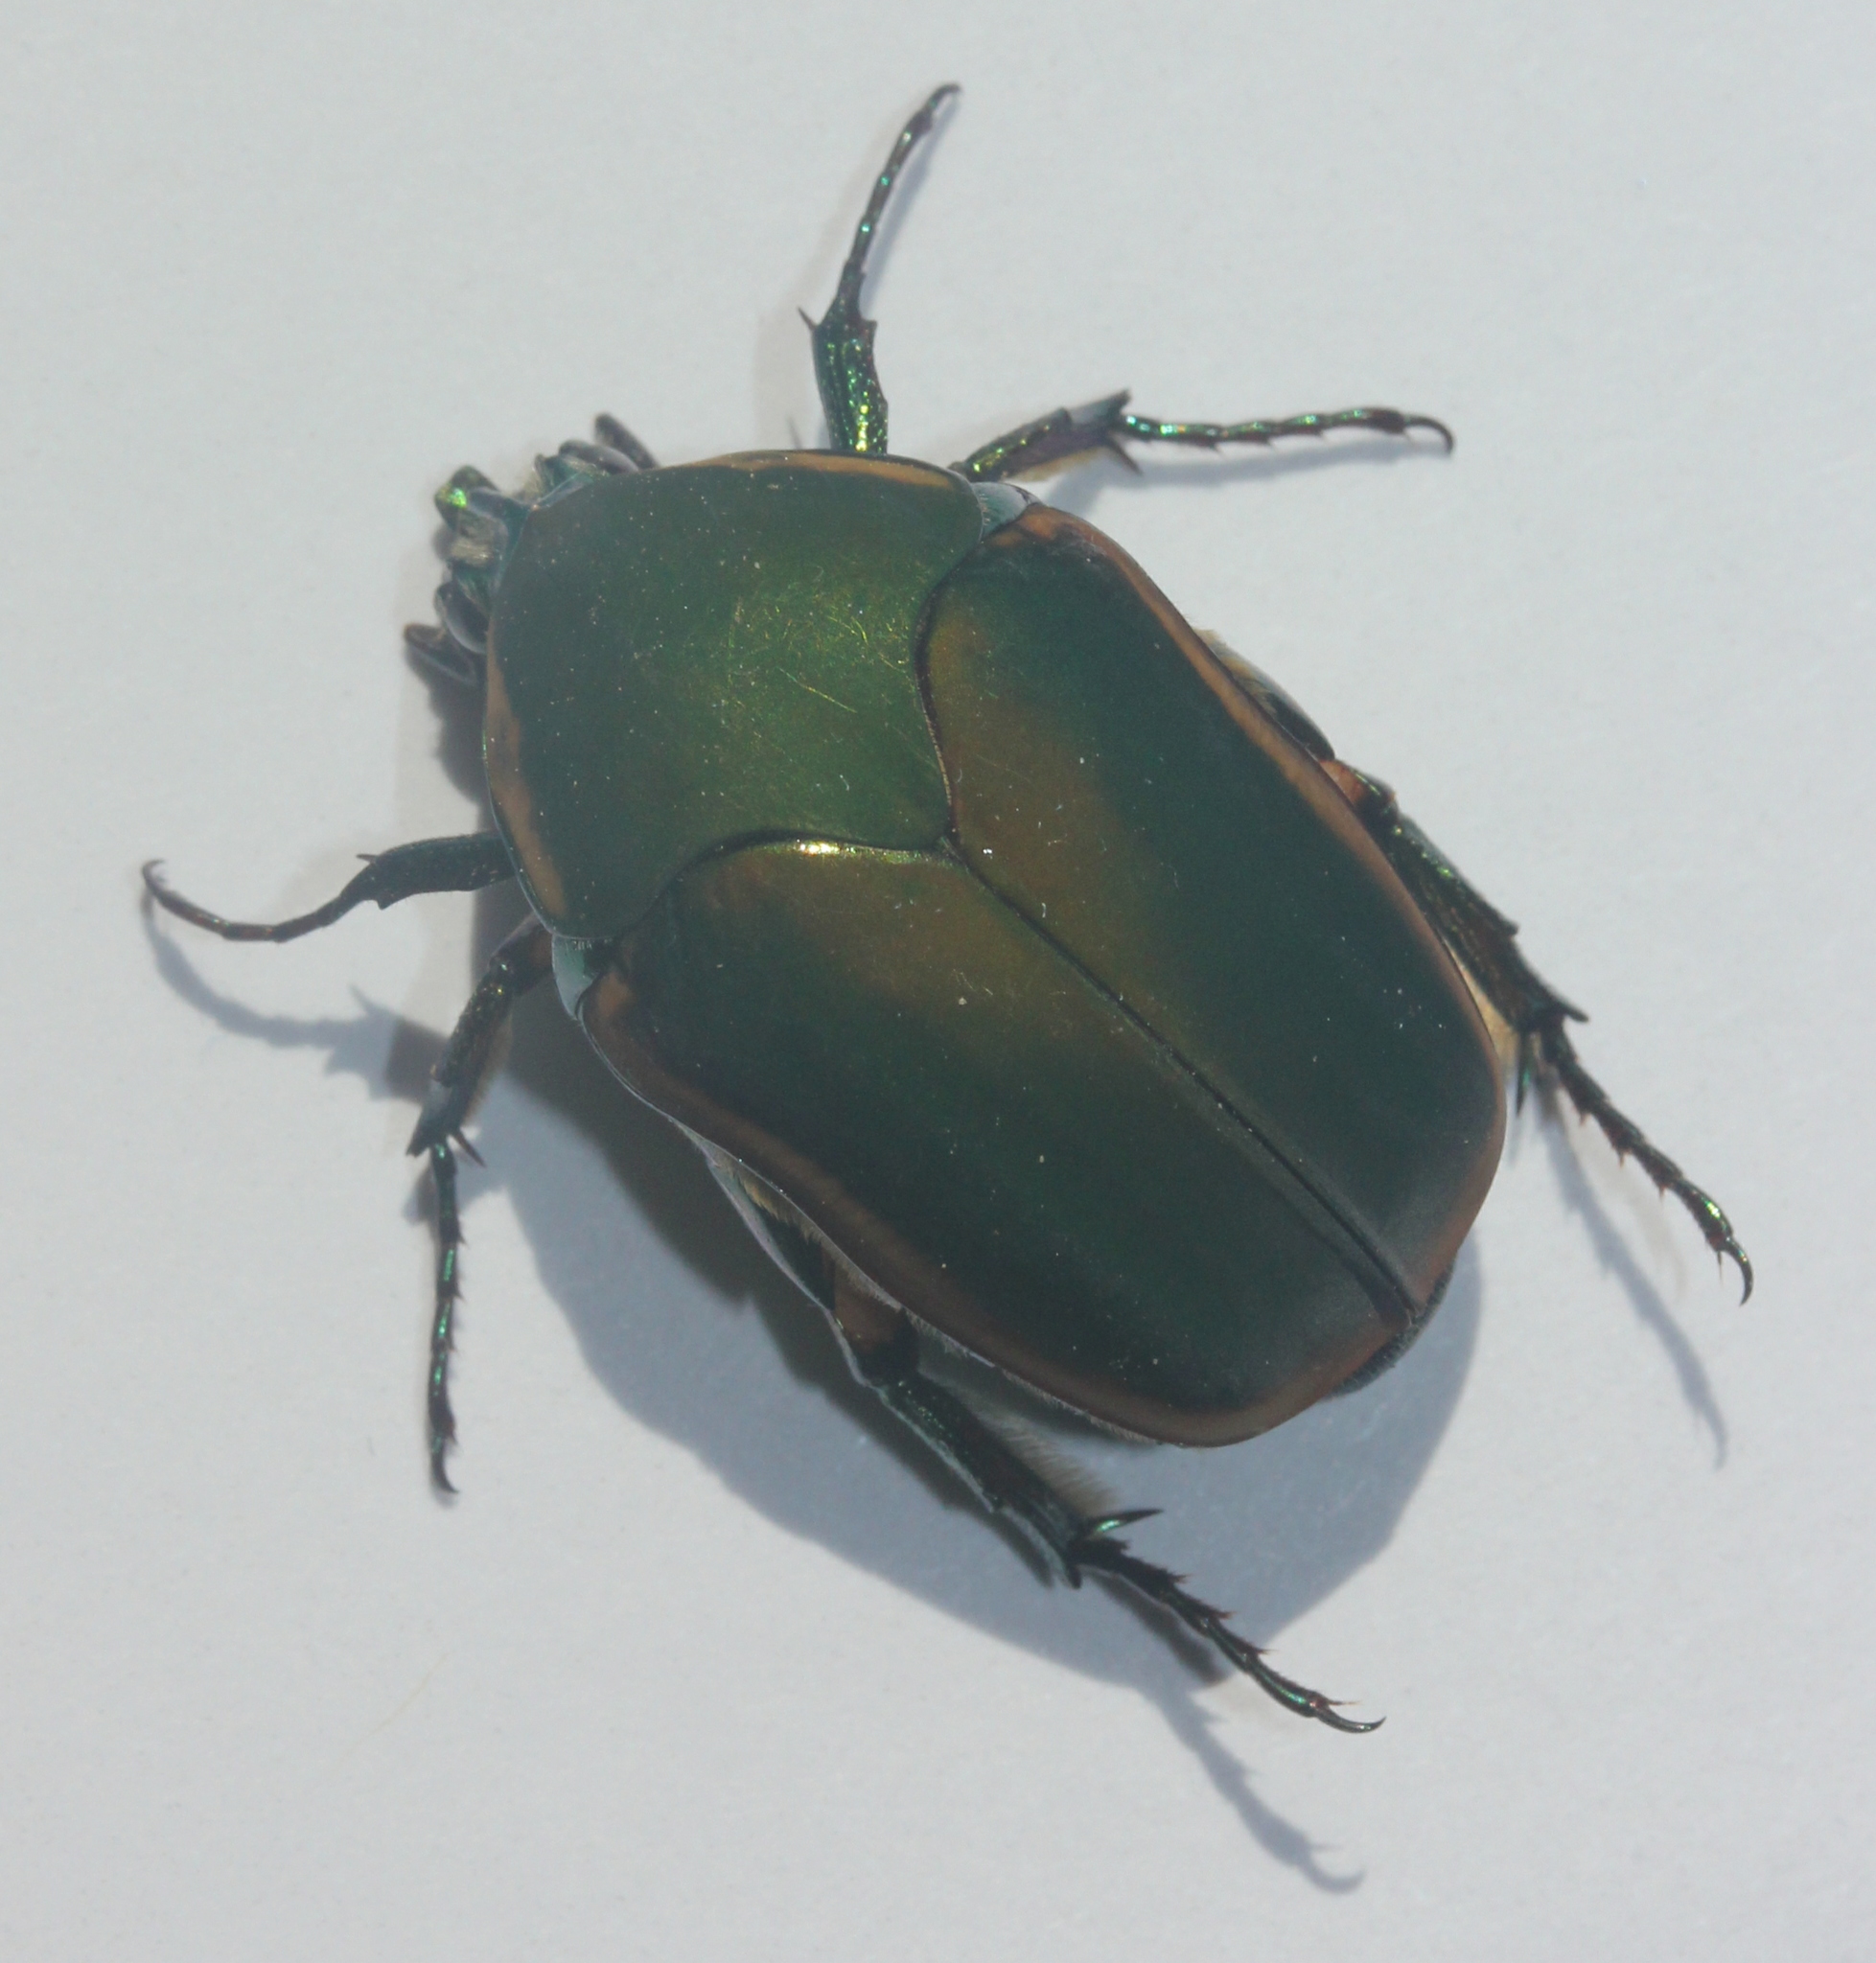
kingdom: Animalia
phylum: Arthropoda
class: Insecta
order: Coleoptera
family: Scarabaeidae
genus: Cotinis
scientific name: Cotinis nitida
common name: Common green june beetle
